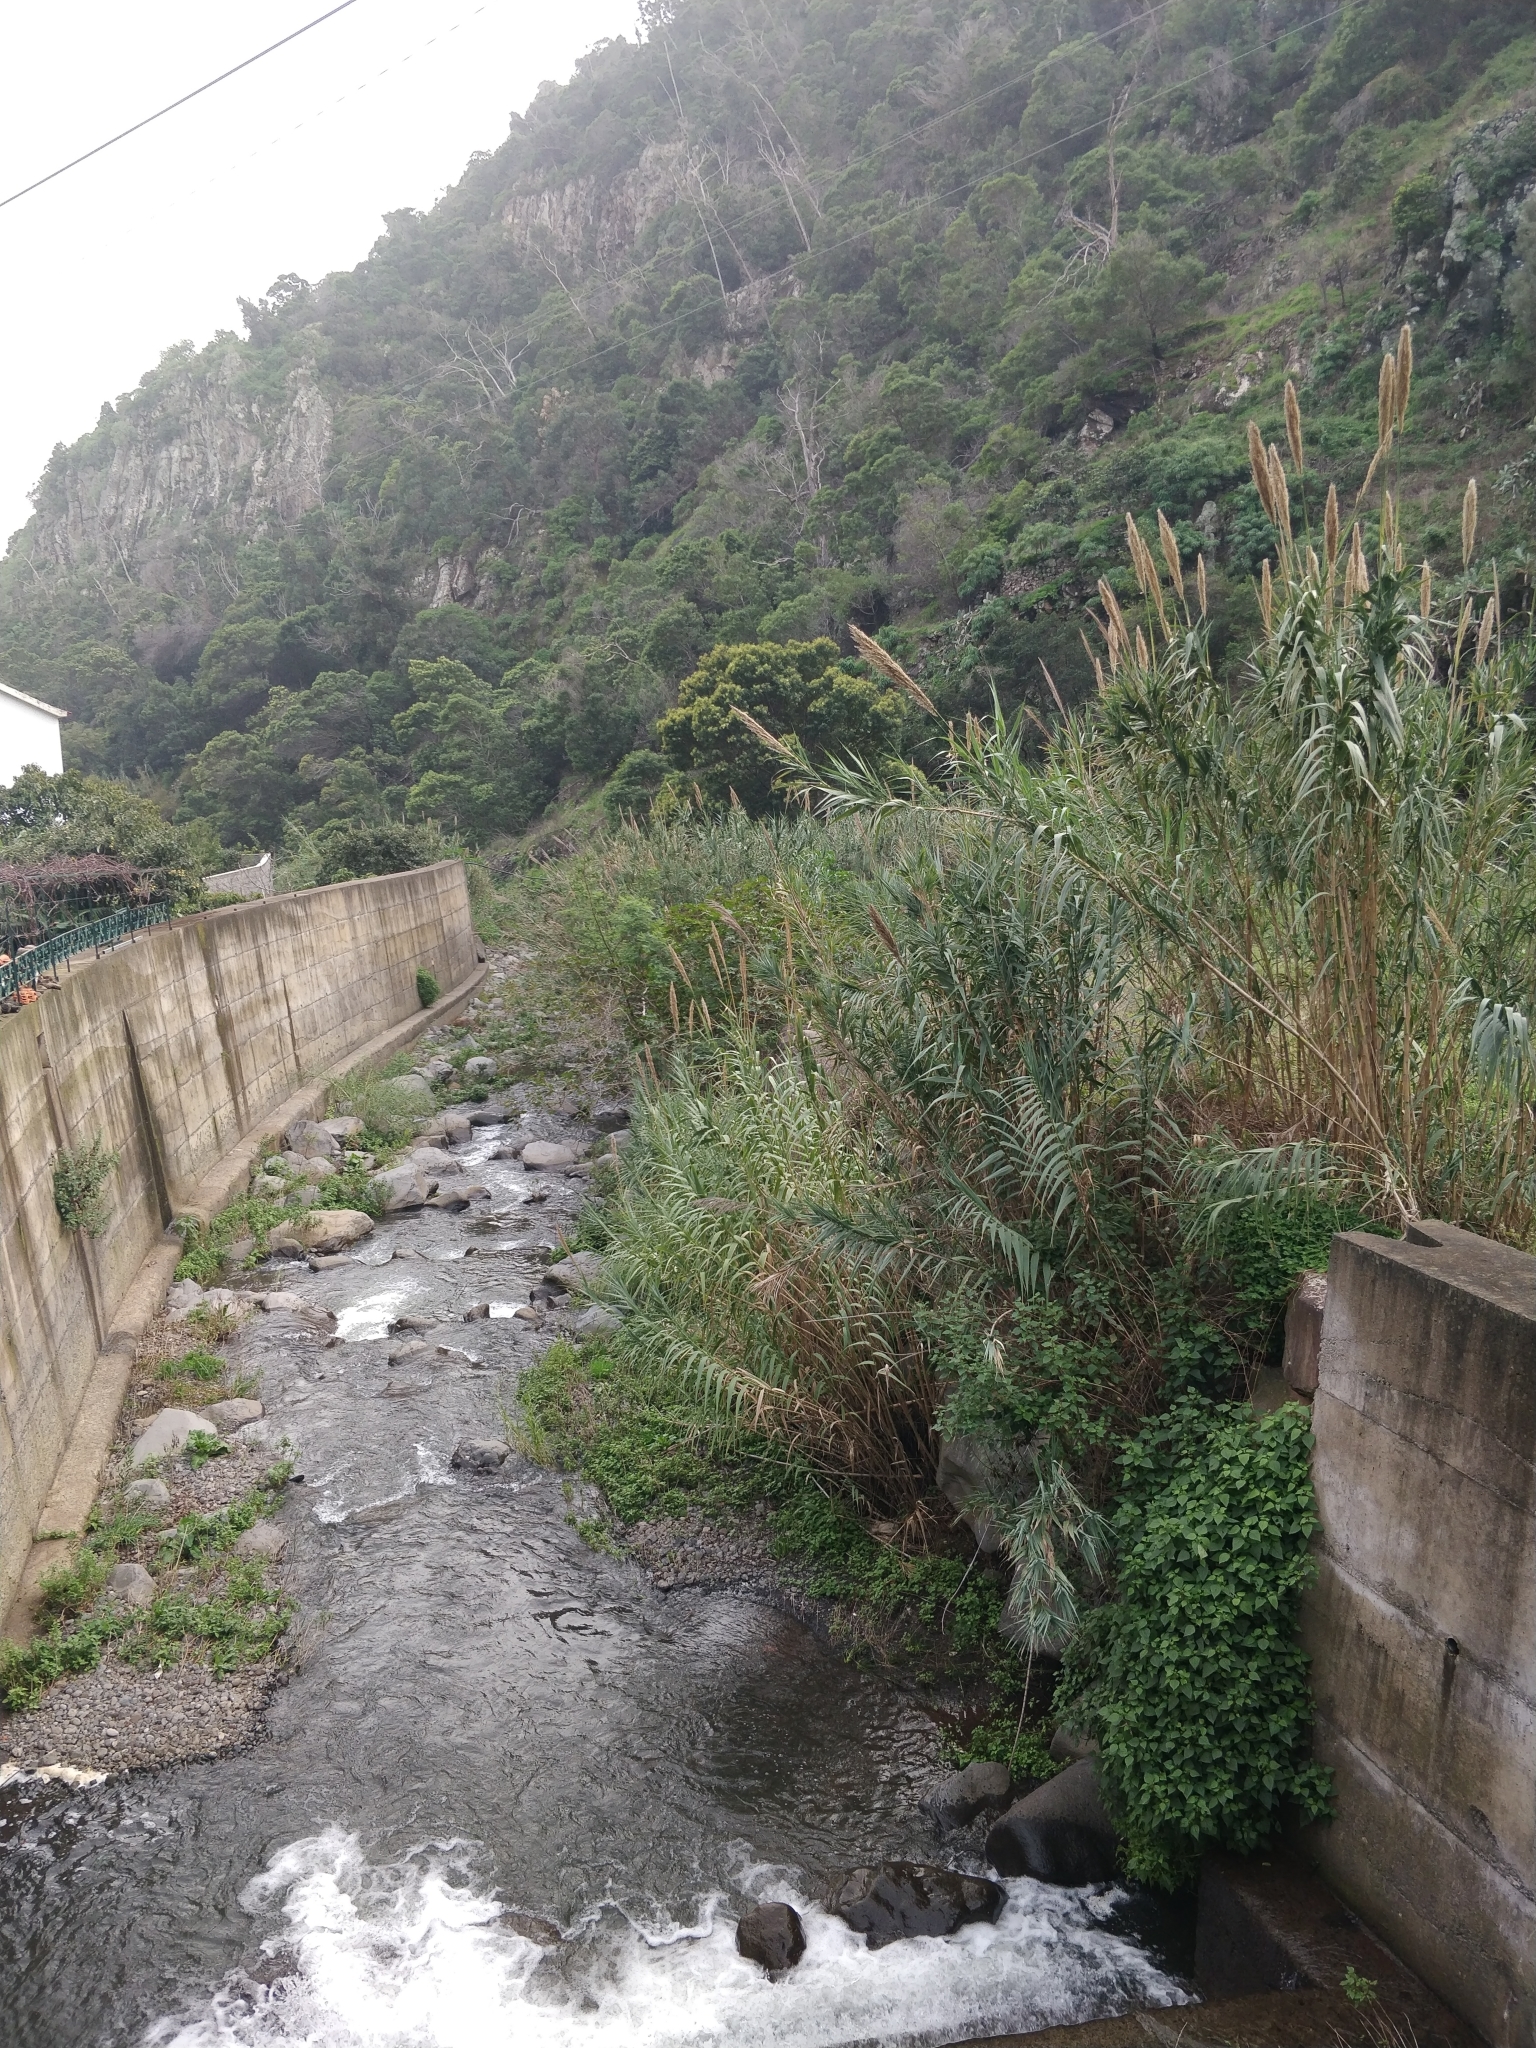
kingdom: Plantae
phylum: Tracheophyta
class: Liliopsida
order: Poales
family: Poaceae
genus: Arundo
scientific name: Arundo donax
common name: Giant reed
